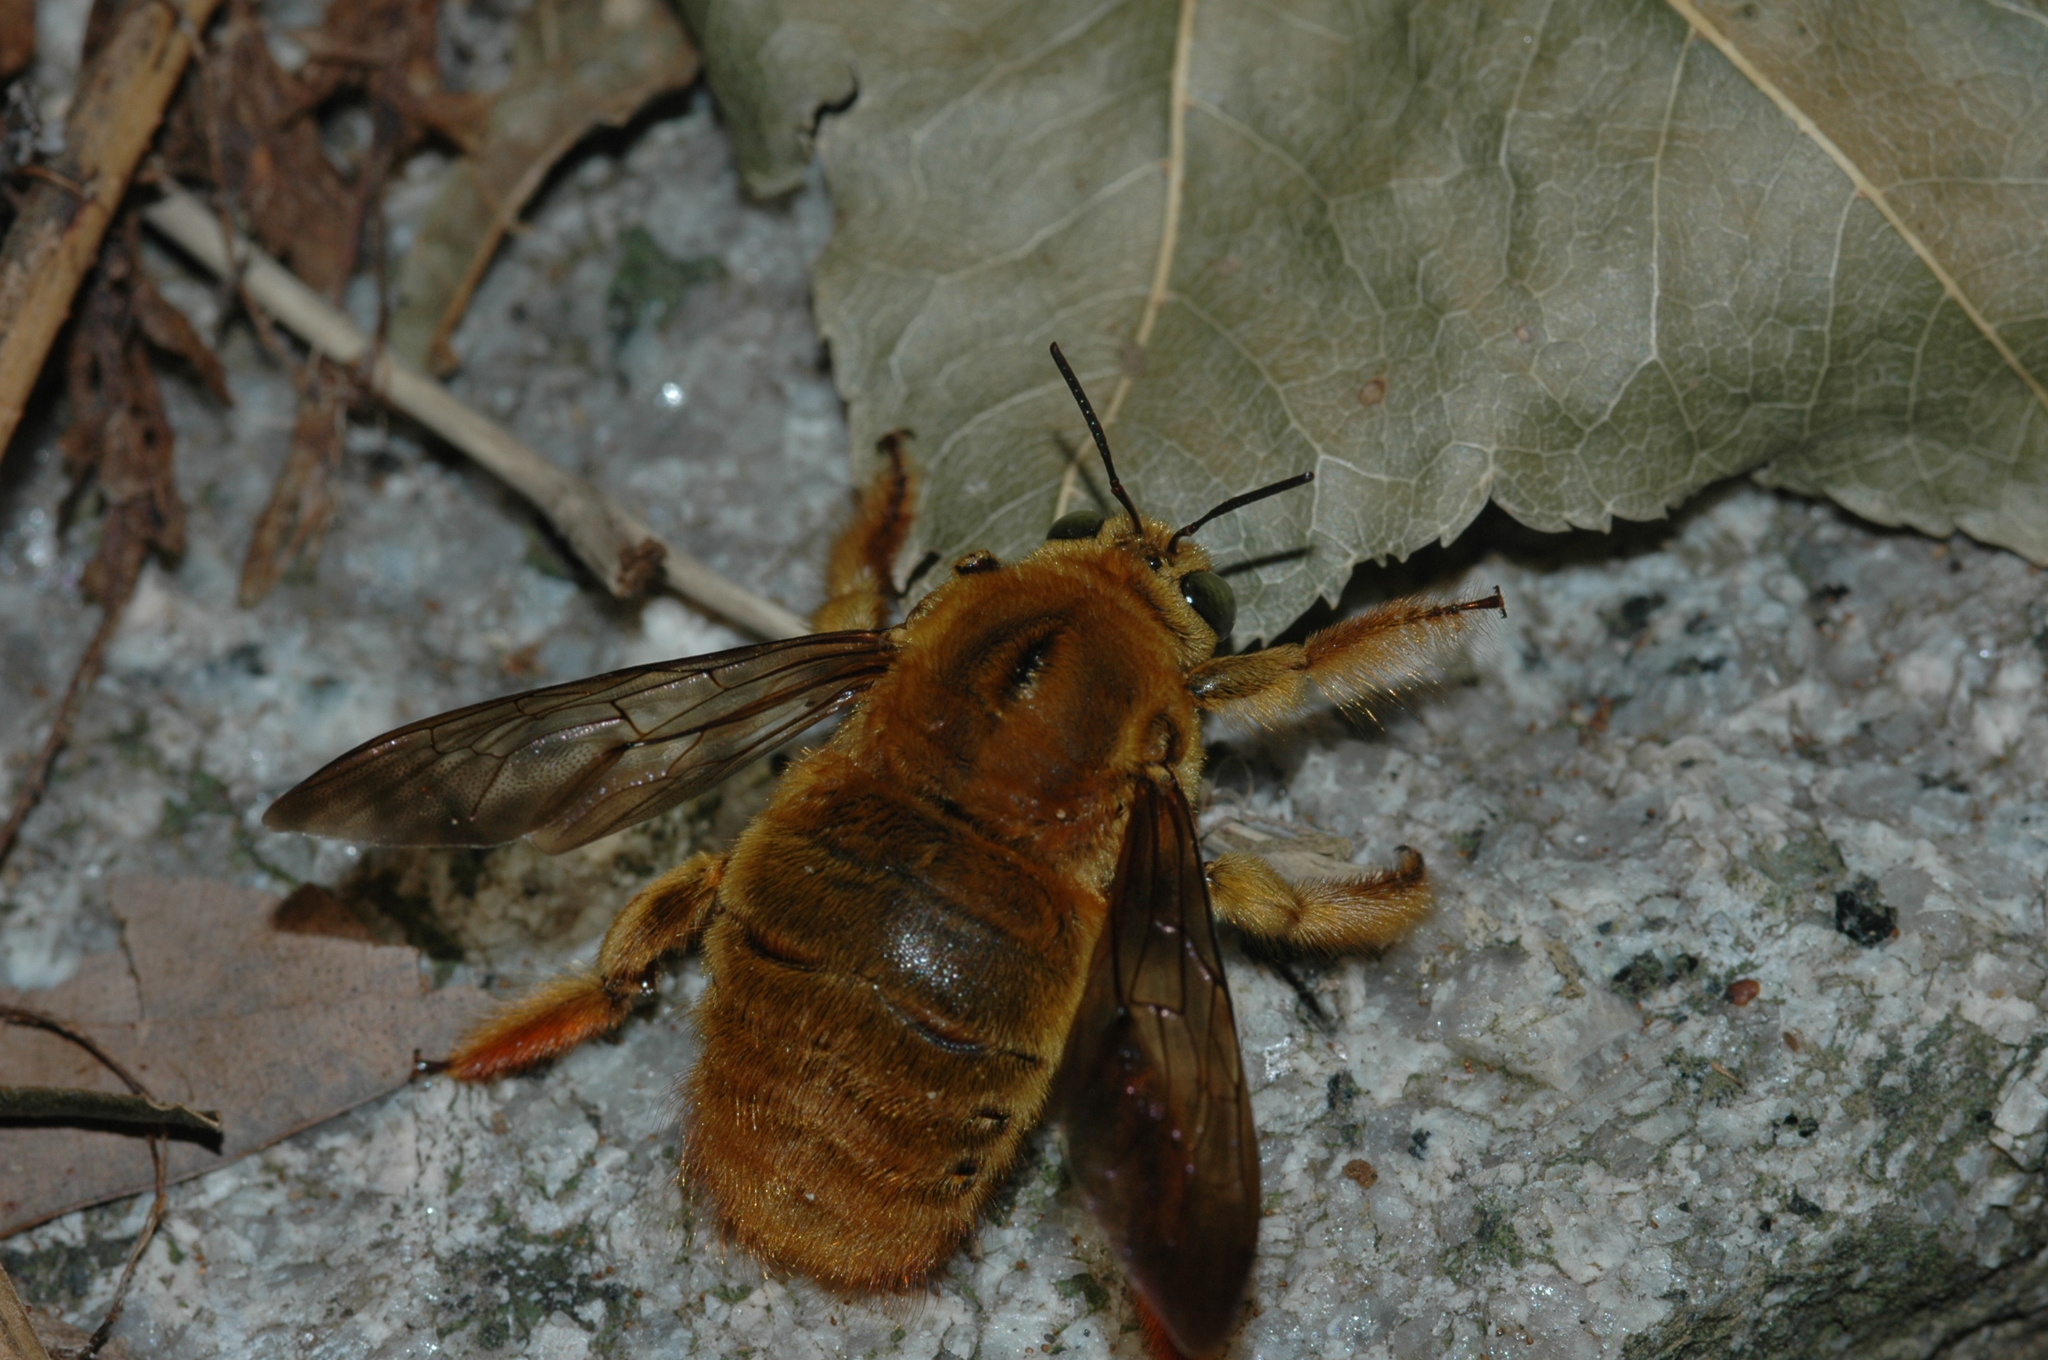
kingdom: Animalia
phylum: Arthropoda
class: Insecta
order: Hymenoptera
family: Apidae
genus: Xylocopa
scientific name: Xylocopa ruficeps
